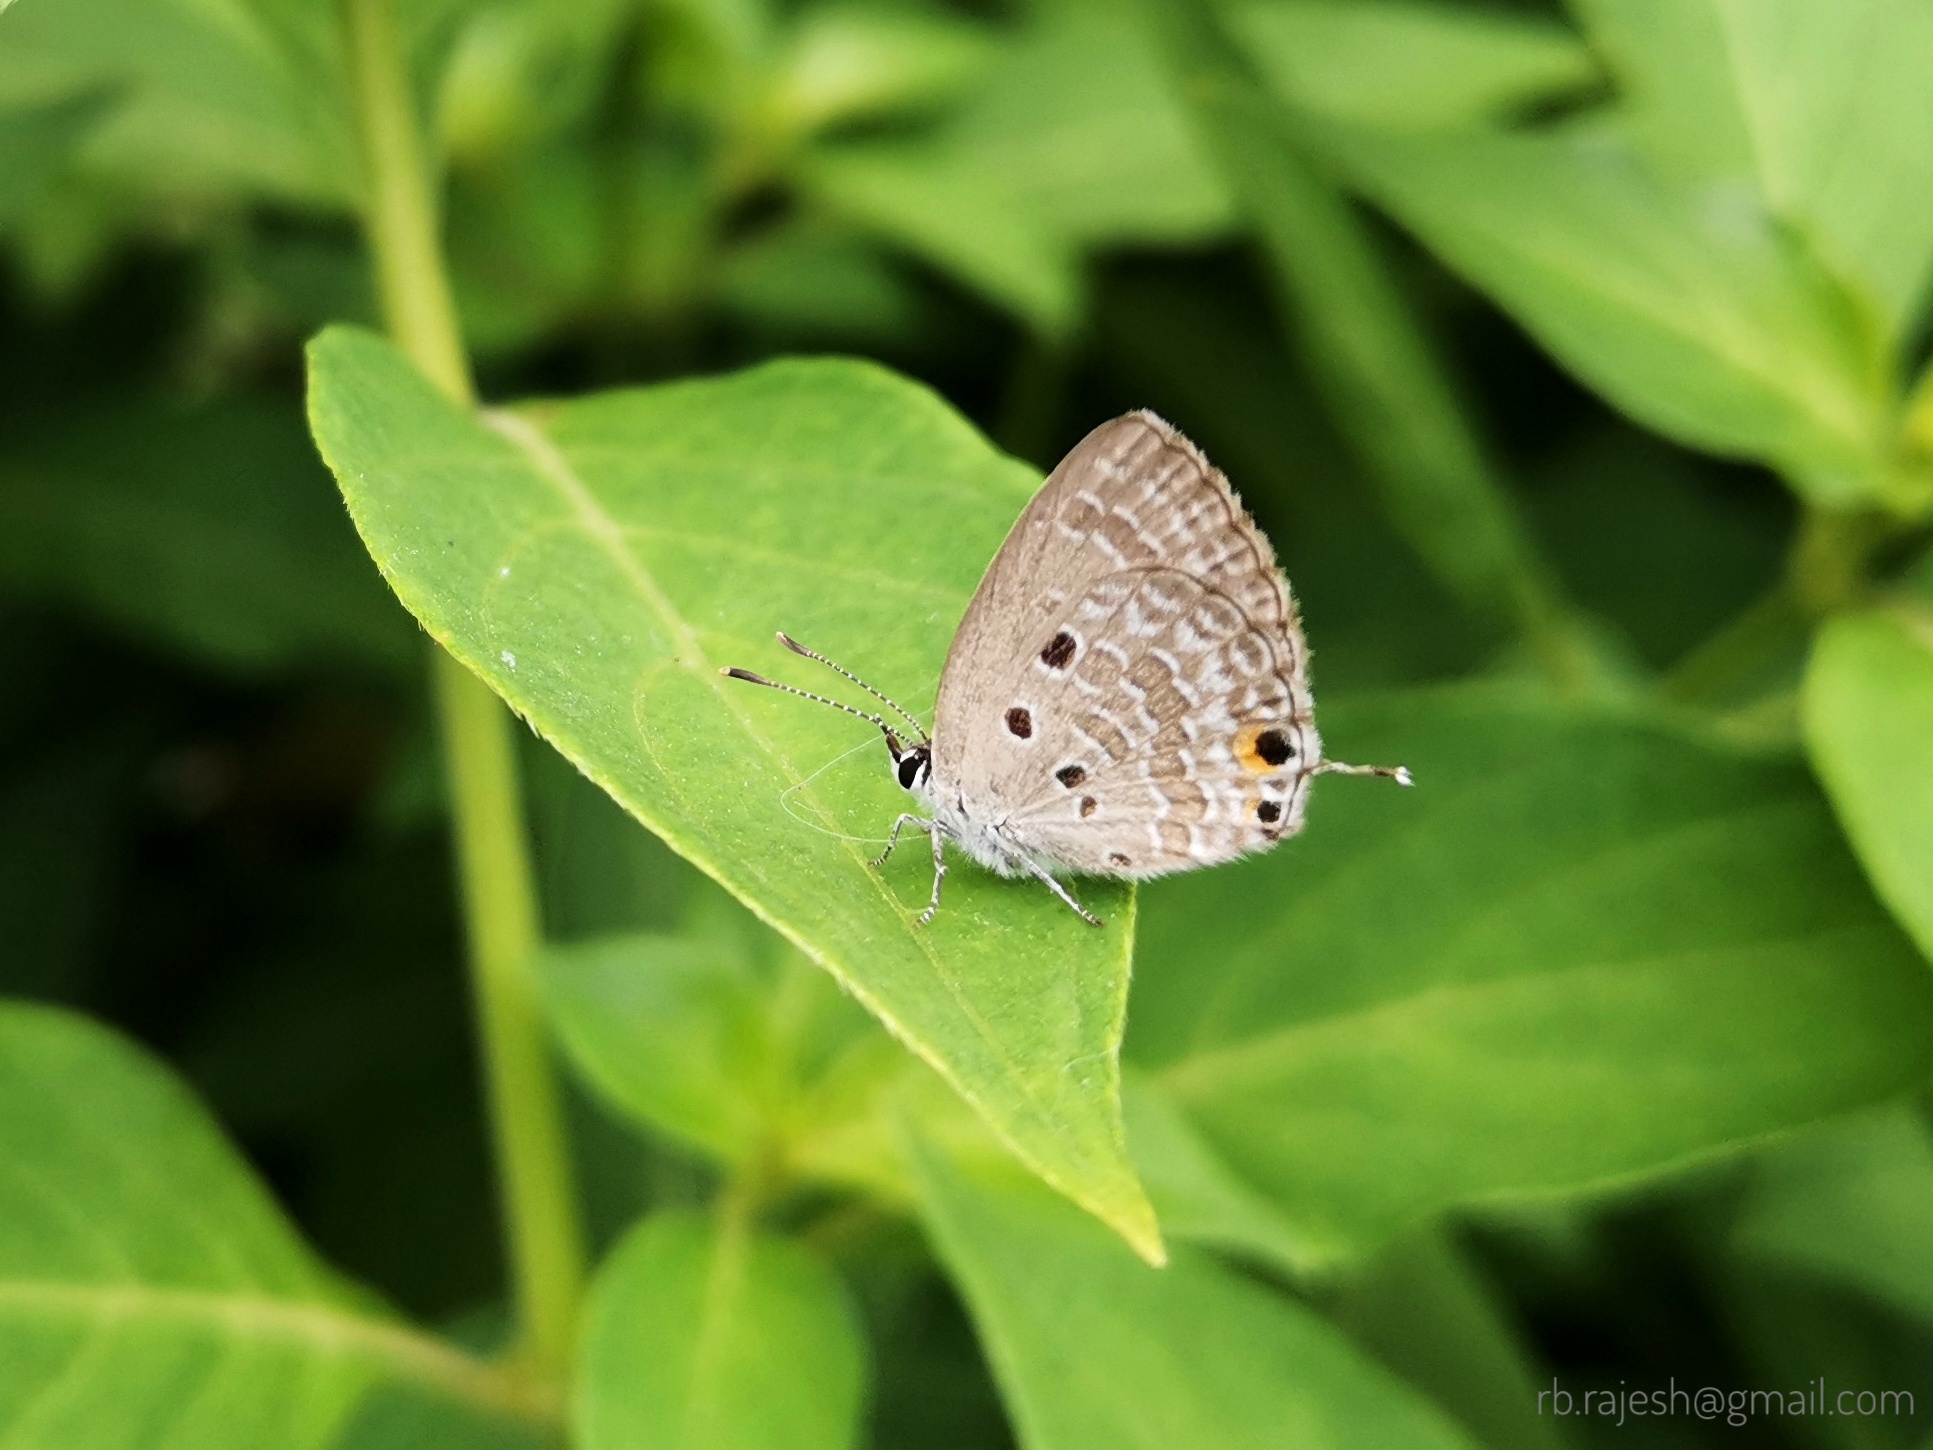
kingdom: Animalia
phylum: Arthropoda
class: Insecta
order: Lepidoptera
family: Lycaenidae
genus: Luthrodes
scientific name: Luthrodes pandava
